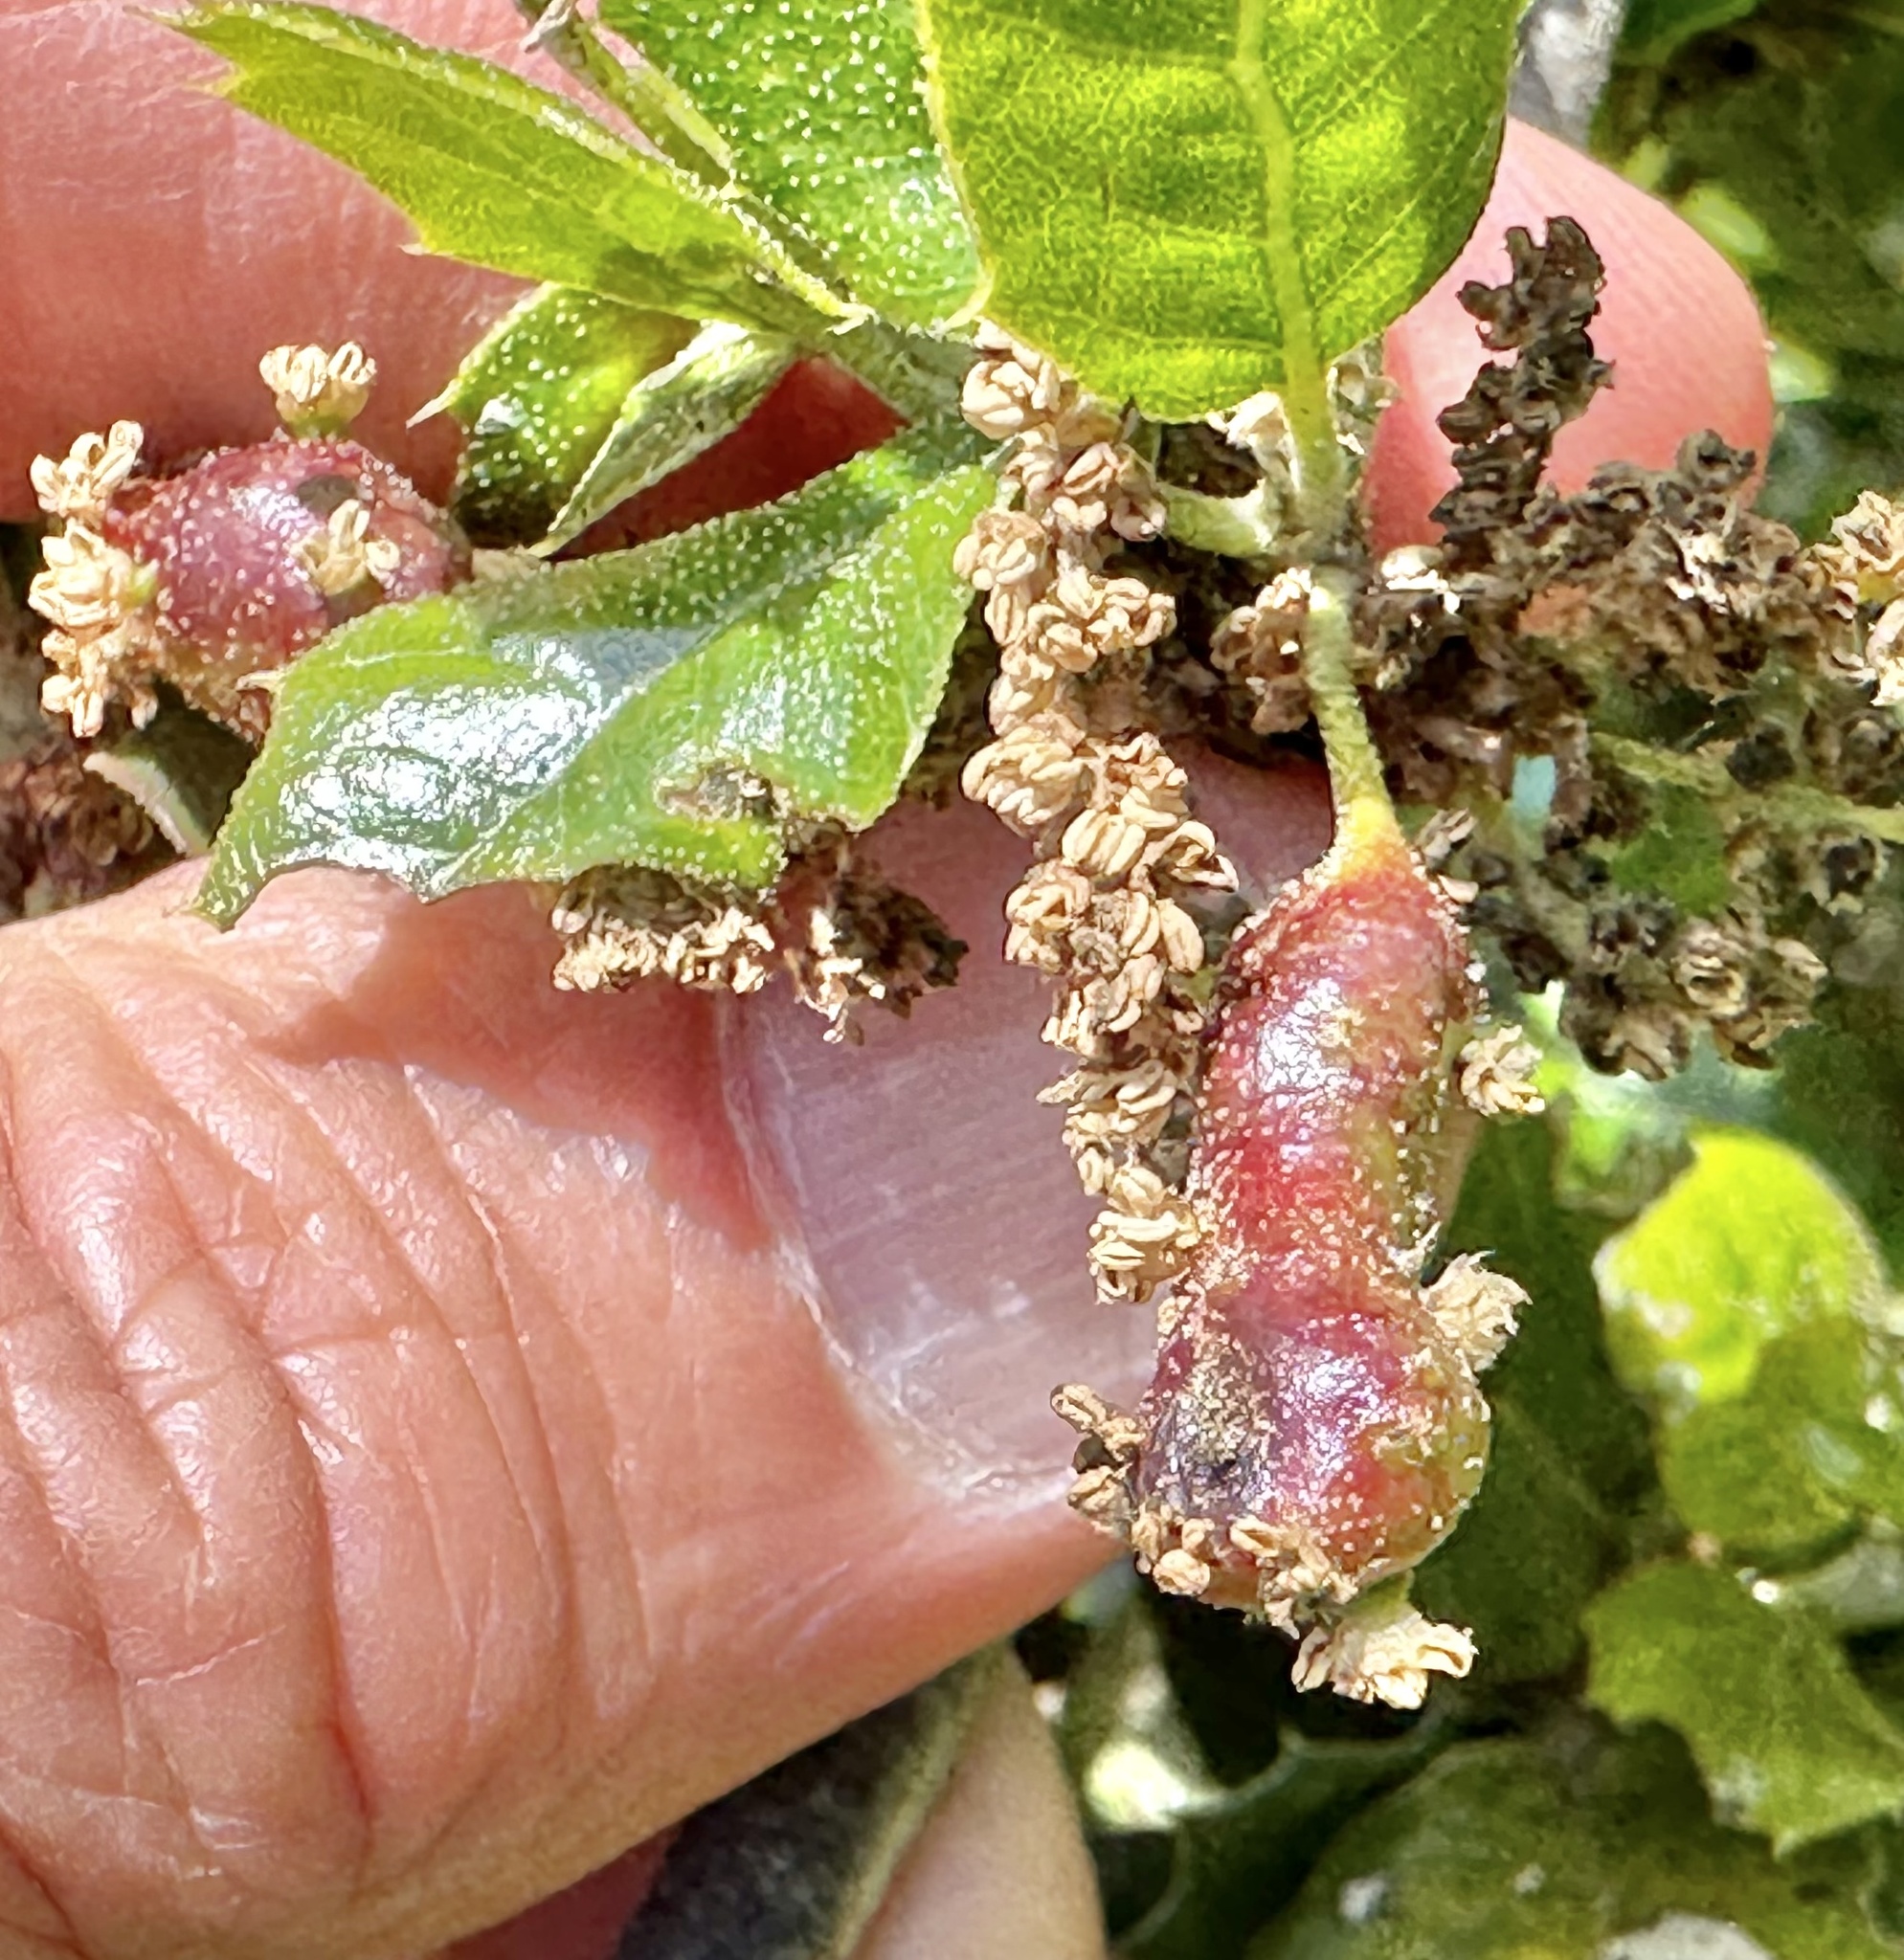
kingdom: Animalia
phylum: Arthropoda
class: Insecta
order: Hymenoptera
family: Cynipidae
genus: Callirhytis
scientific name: Callirhytis
